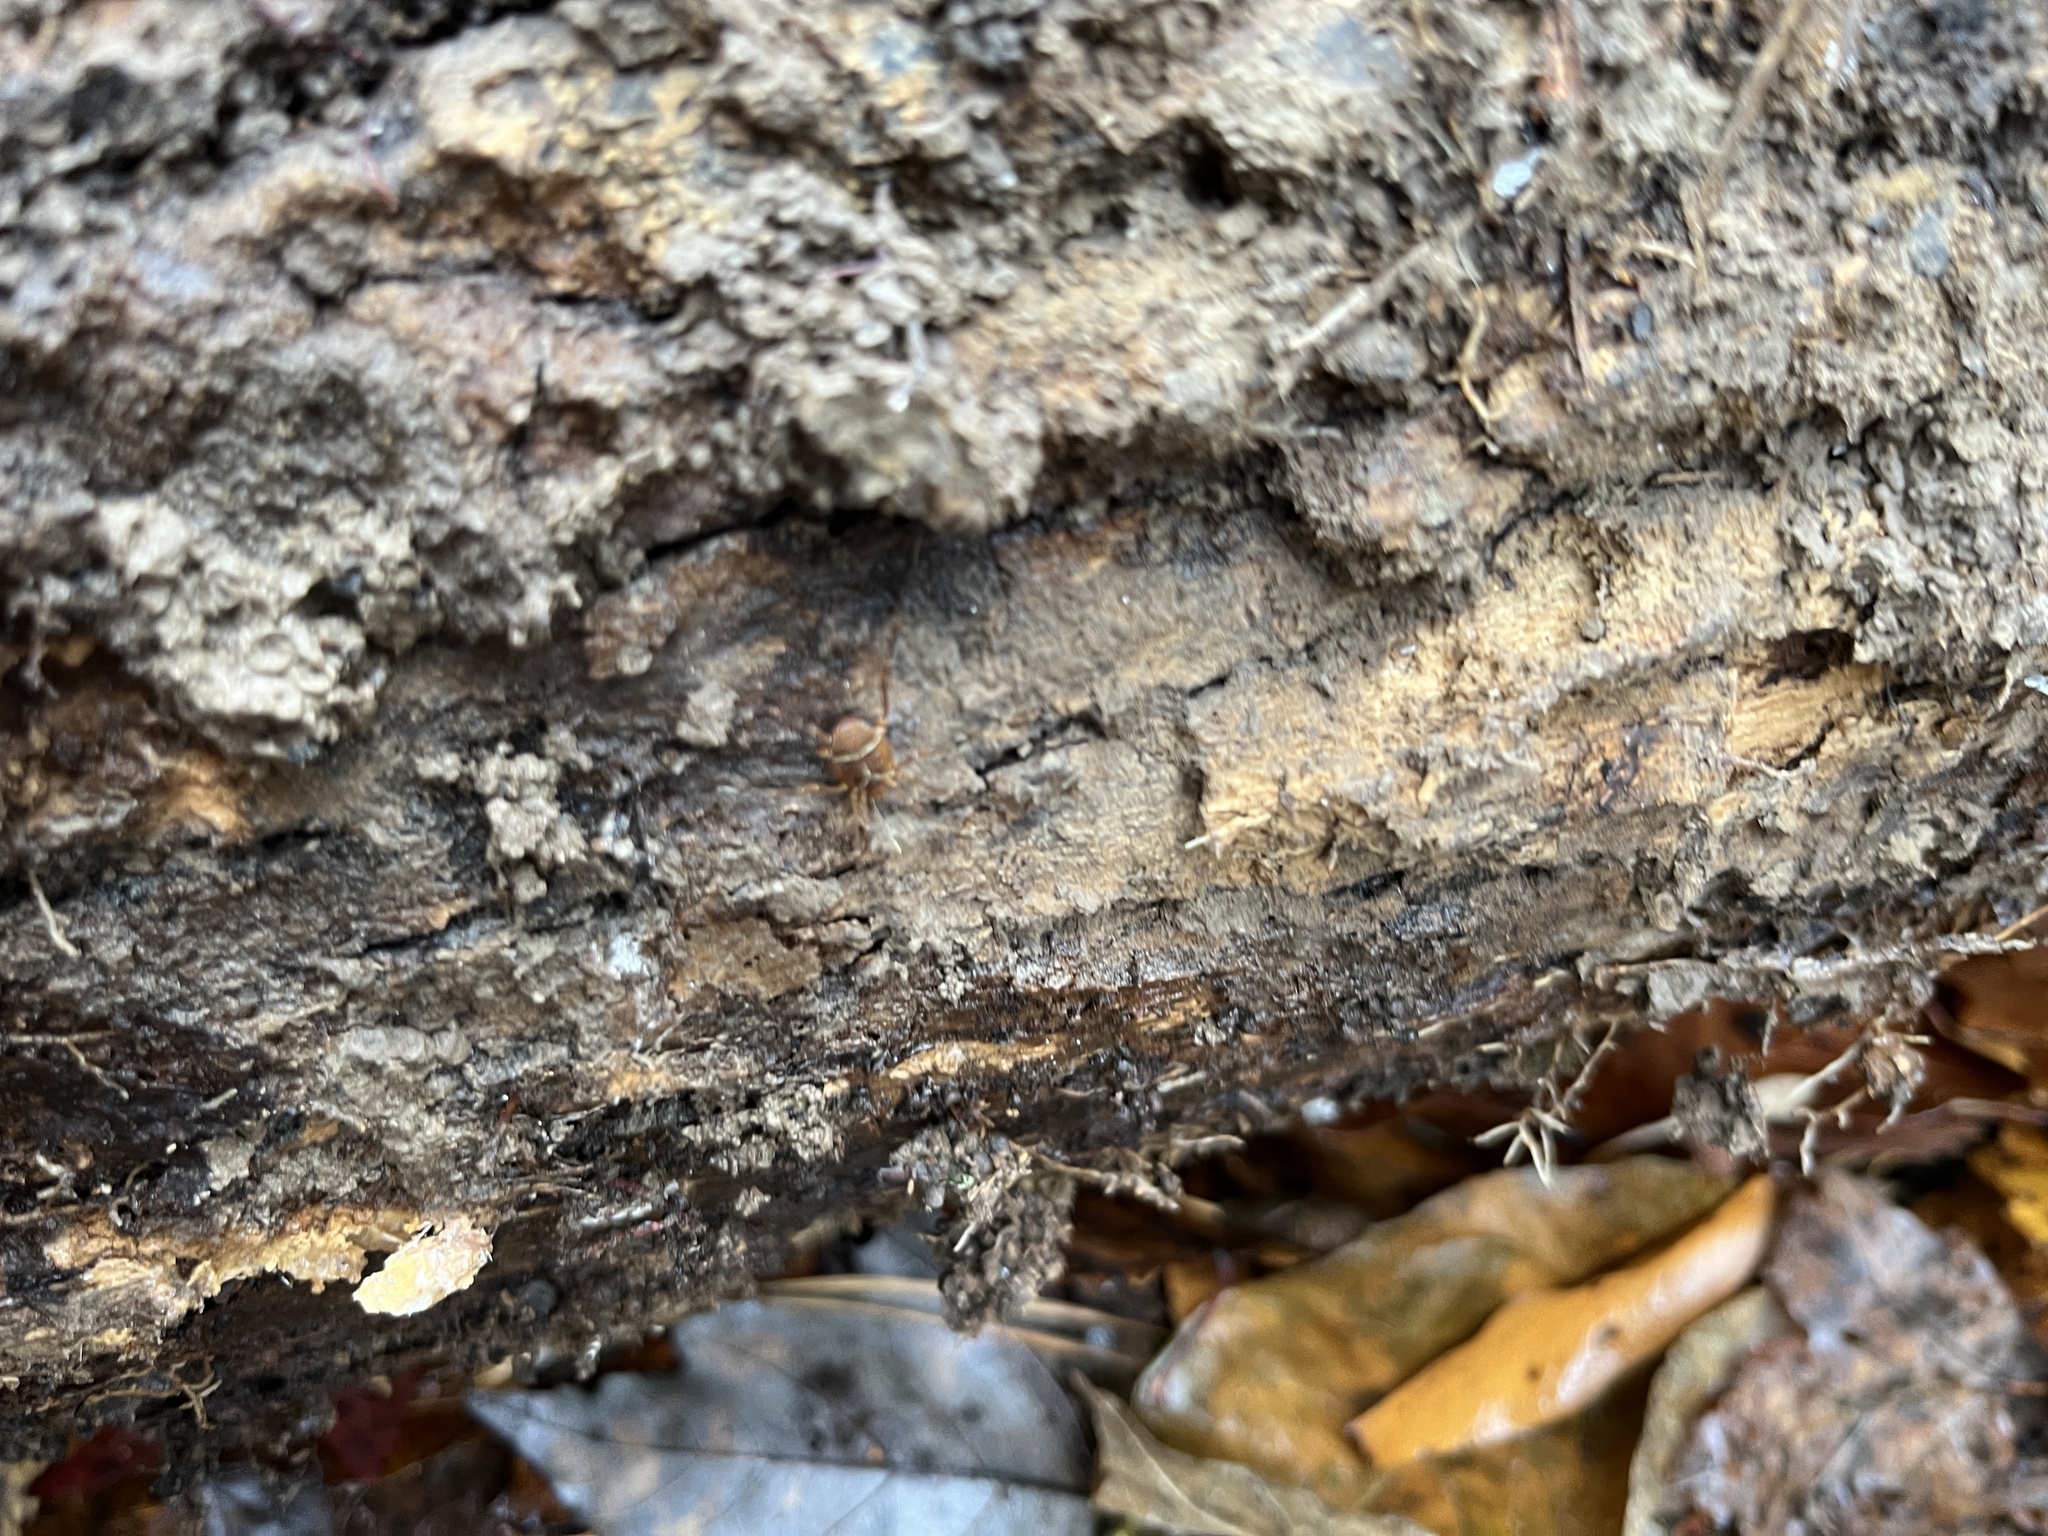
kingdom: Animalia
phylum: Arthropoda
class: Arachnida
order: Opiliones
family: Cosmetidae
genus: Libitioides
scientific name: Libitioides sayi
